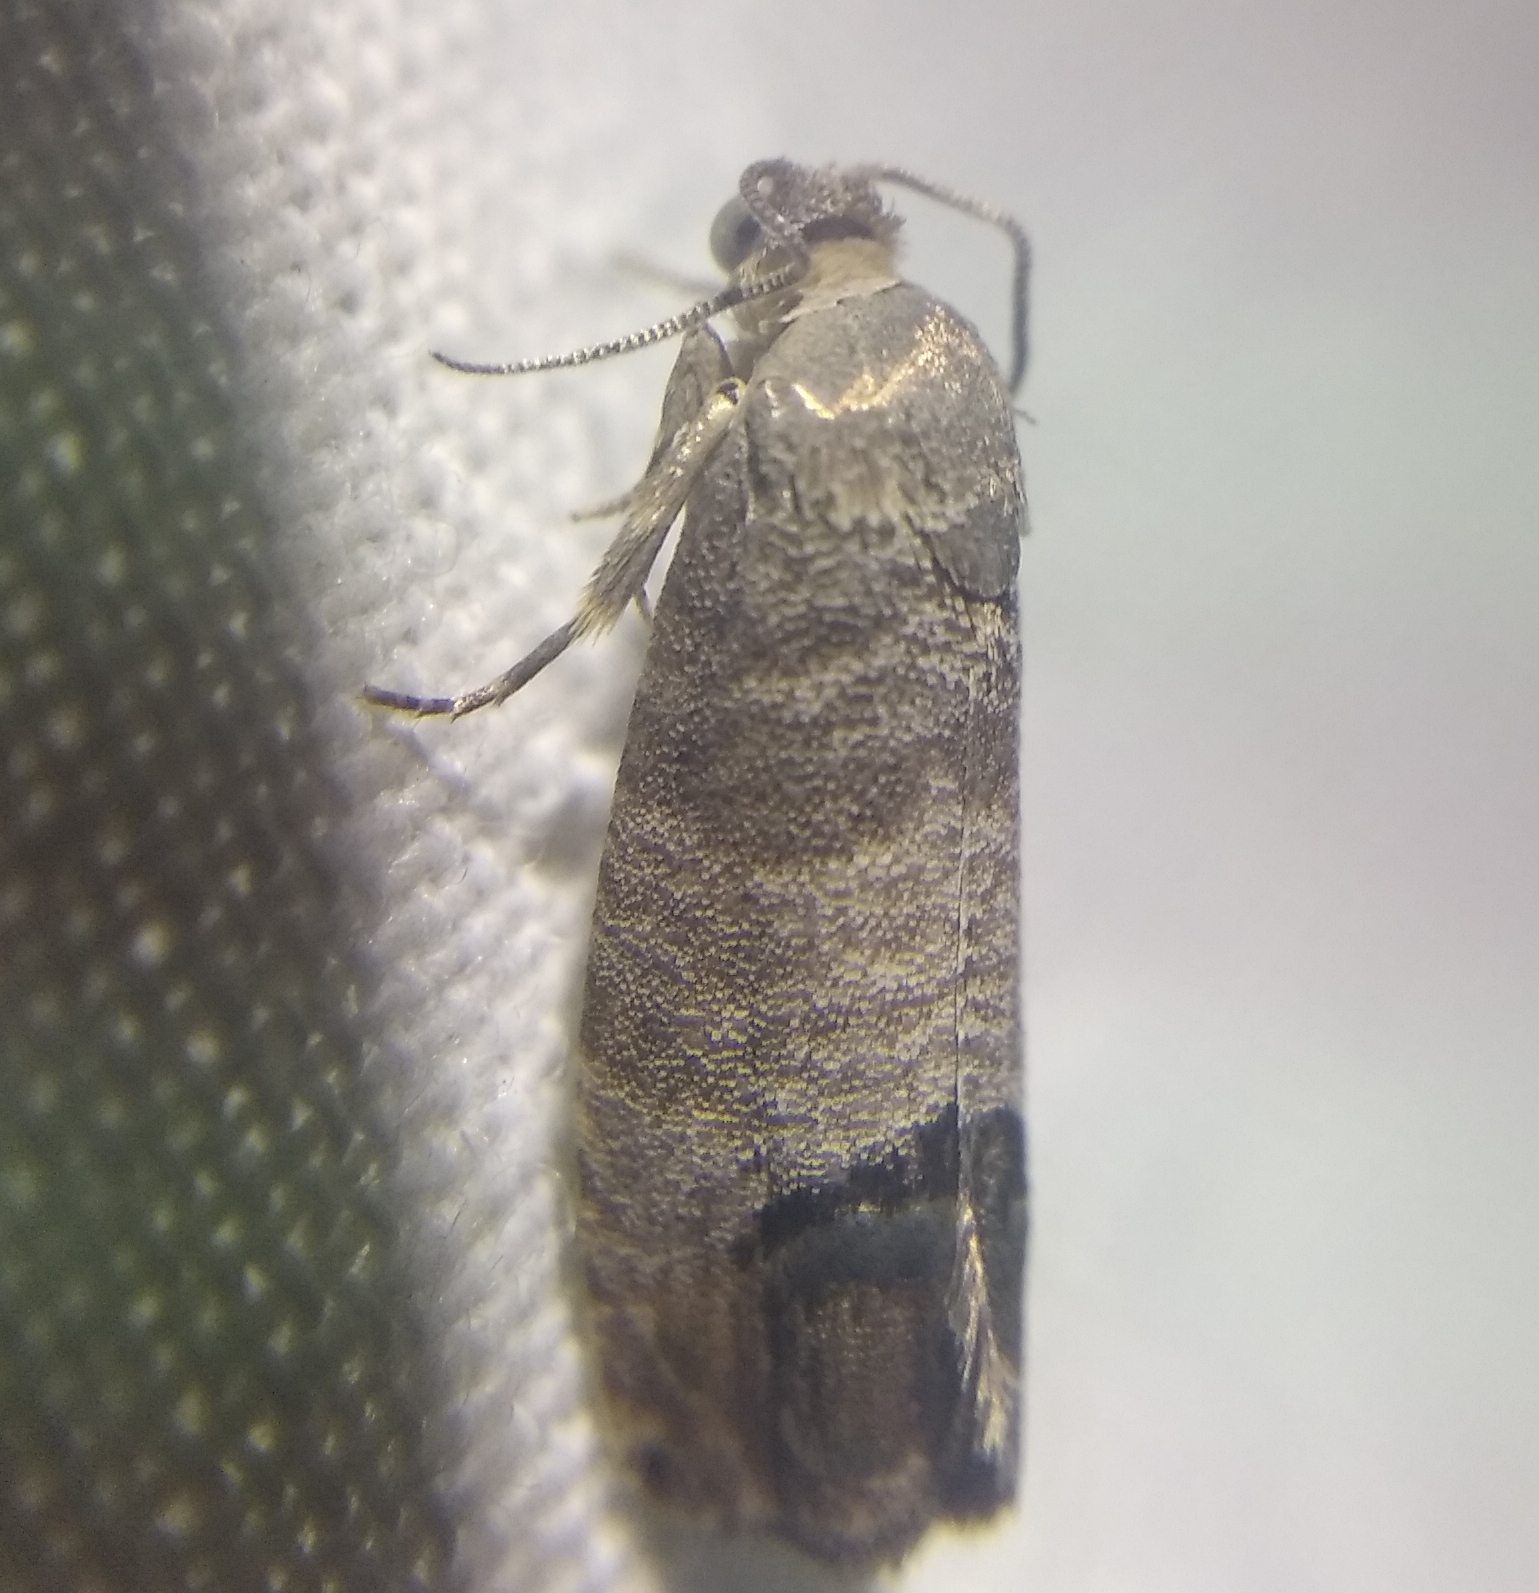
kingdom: Animalia
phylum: Arthropoda
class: Insecta
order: Lepidoptera
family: Tortricidae
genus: Cydia
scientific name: Cydia pomonella
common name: Codling moth
